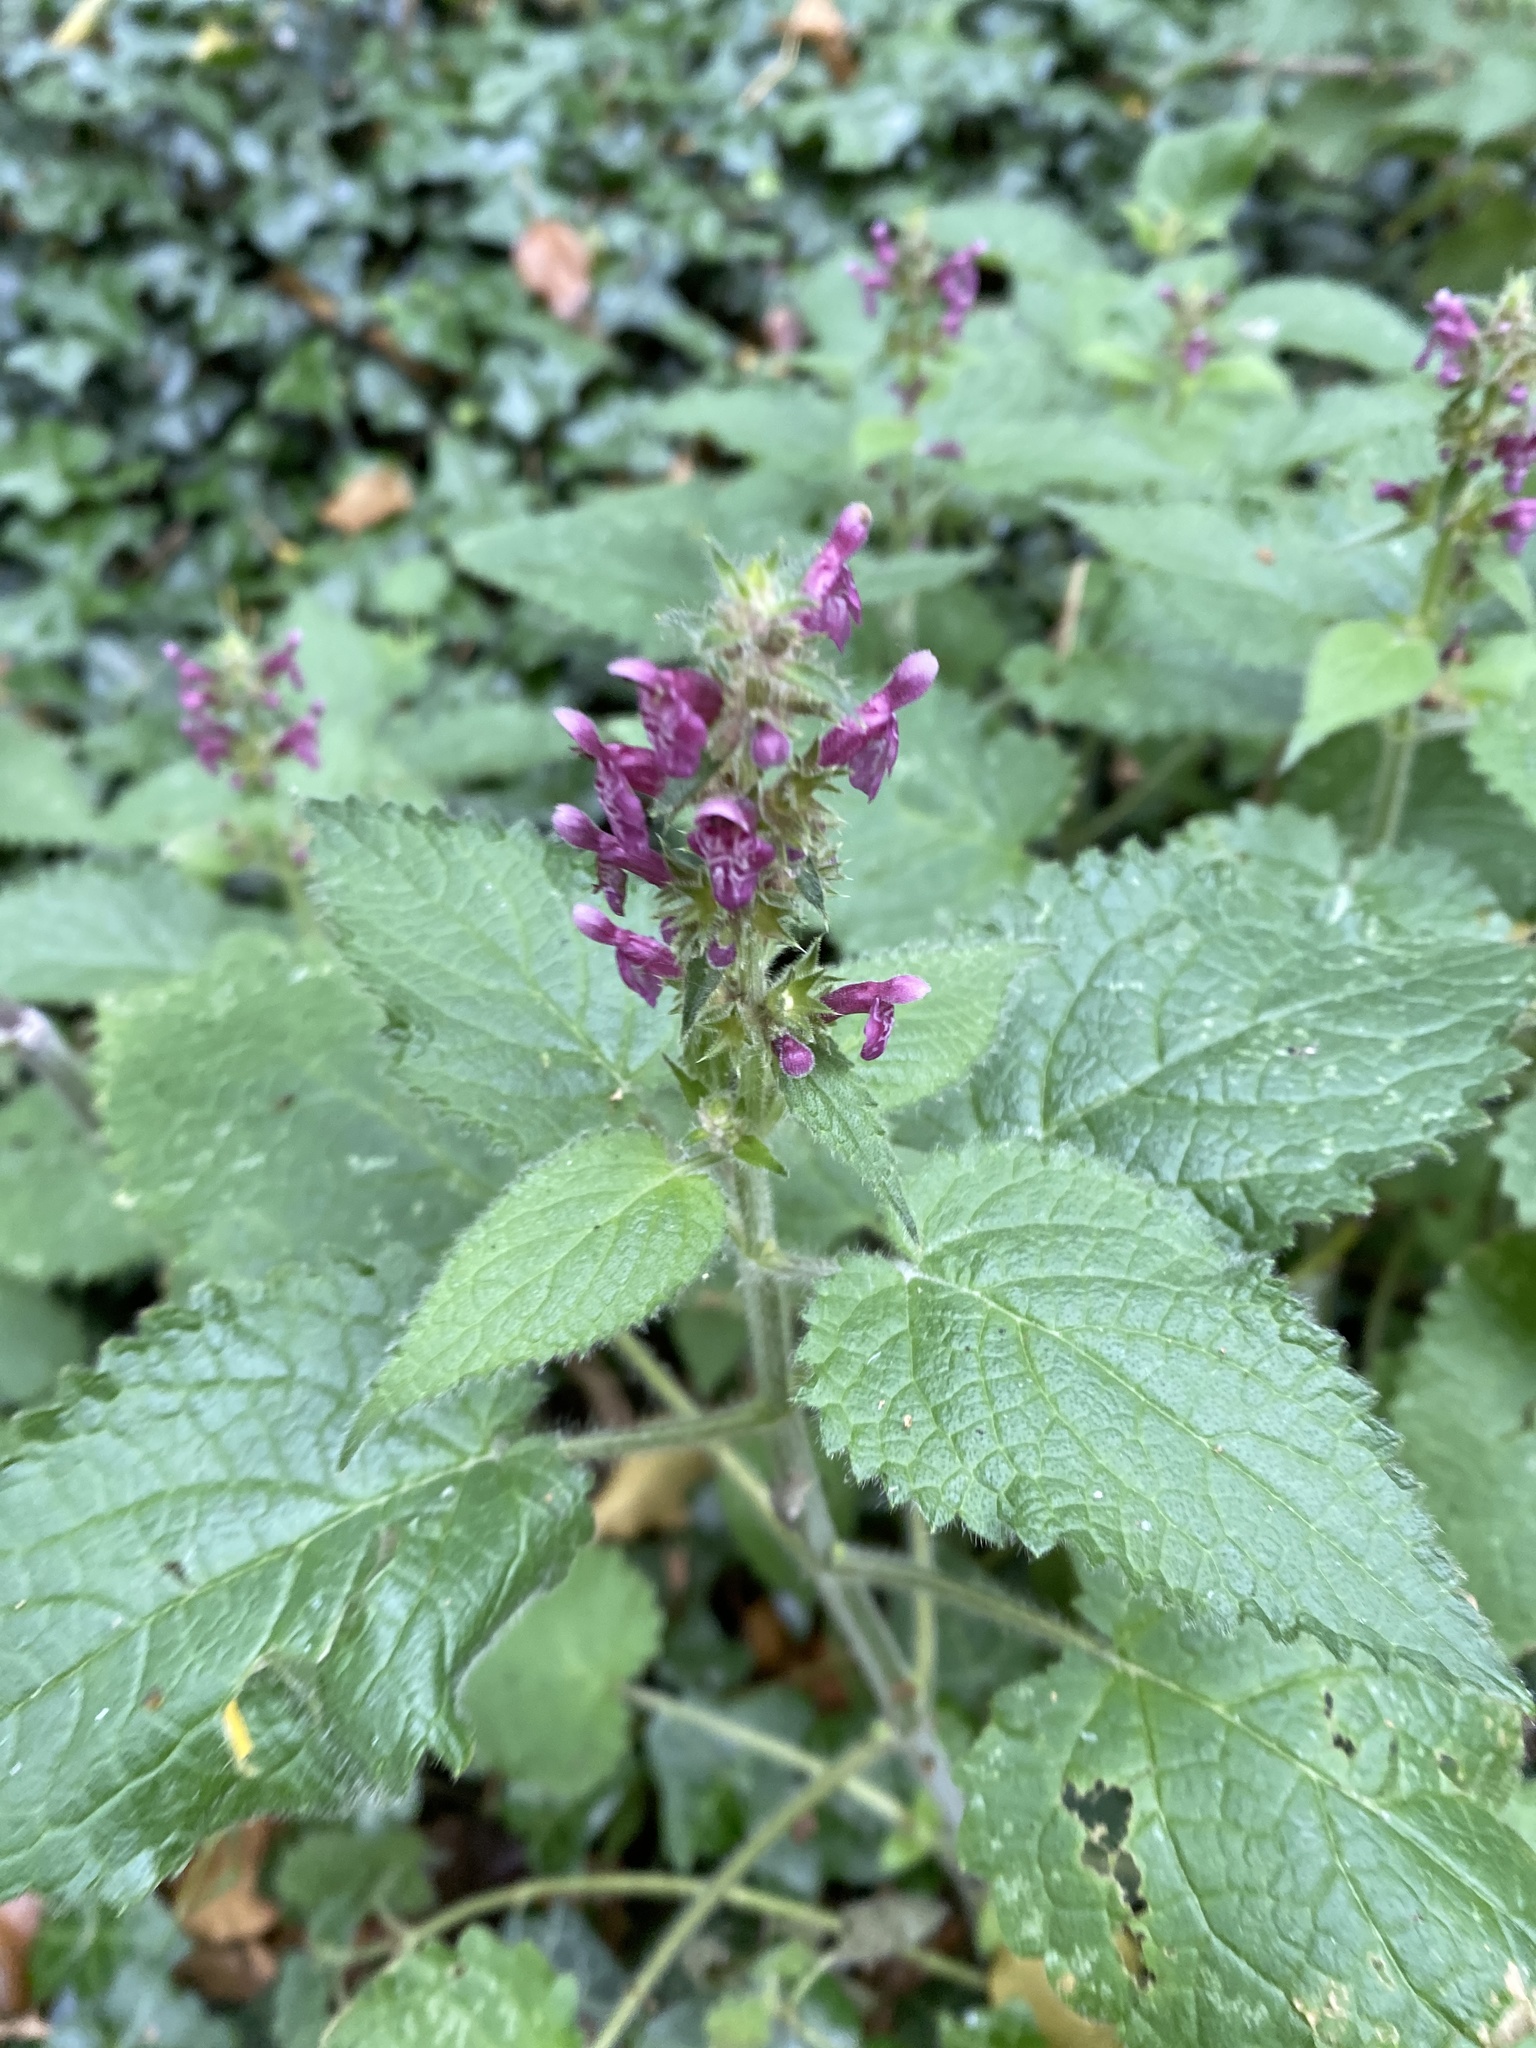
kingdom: Plantae
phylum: Tracheophyta
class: Magnoliopsida
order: Lamiales
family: Lamiaceae
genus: Stachys
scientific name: Stachys sylvatica
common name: Hedge woundwort
